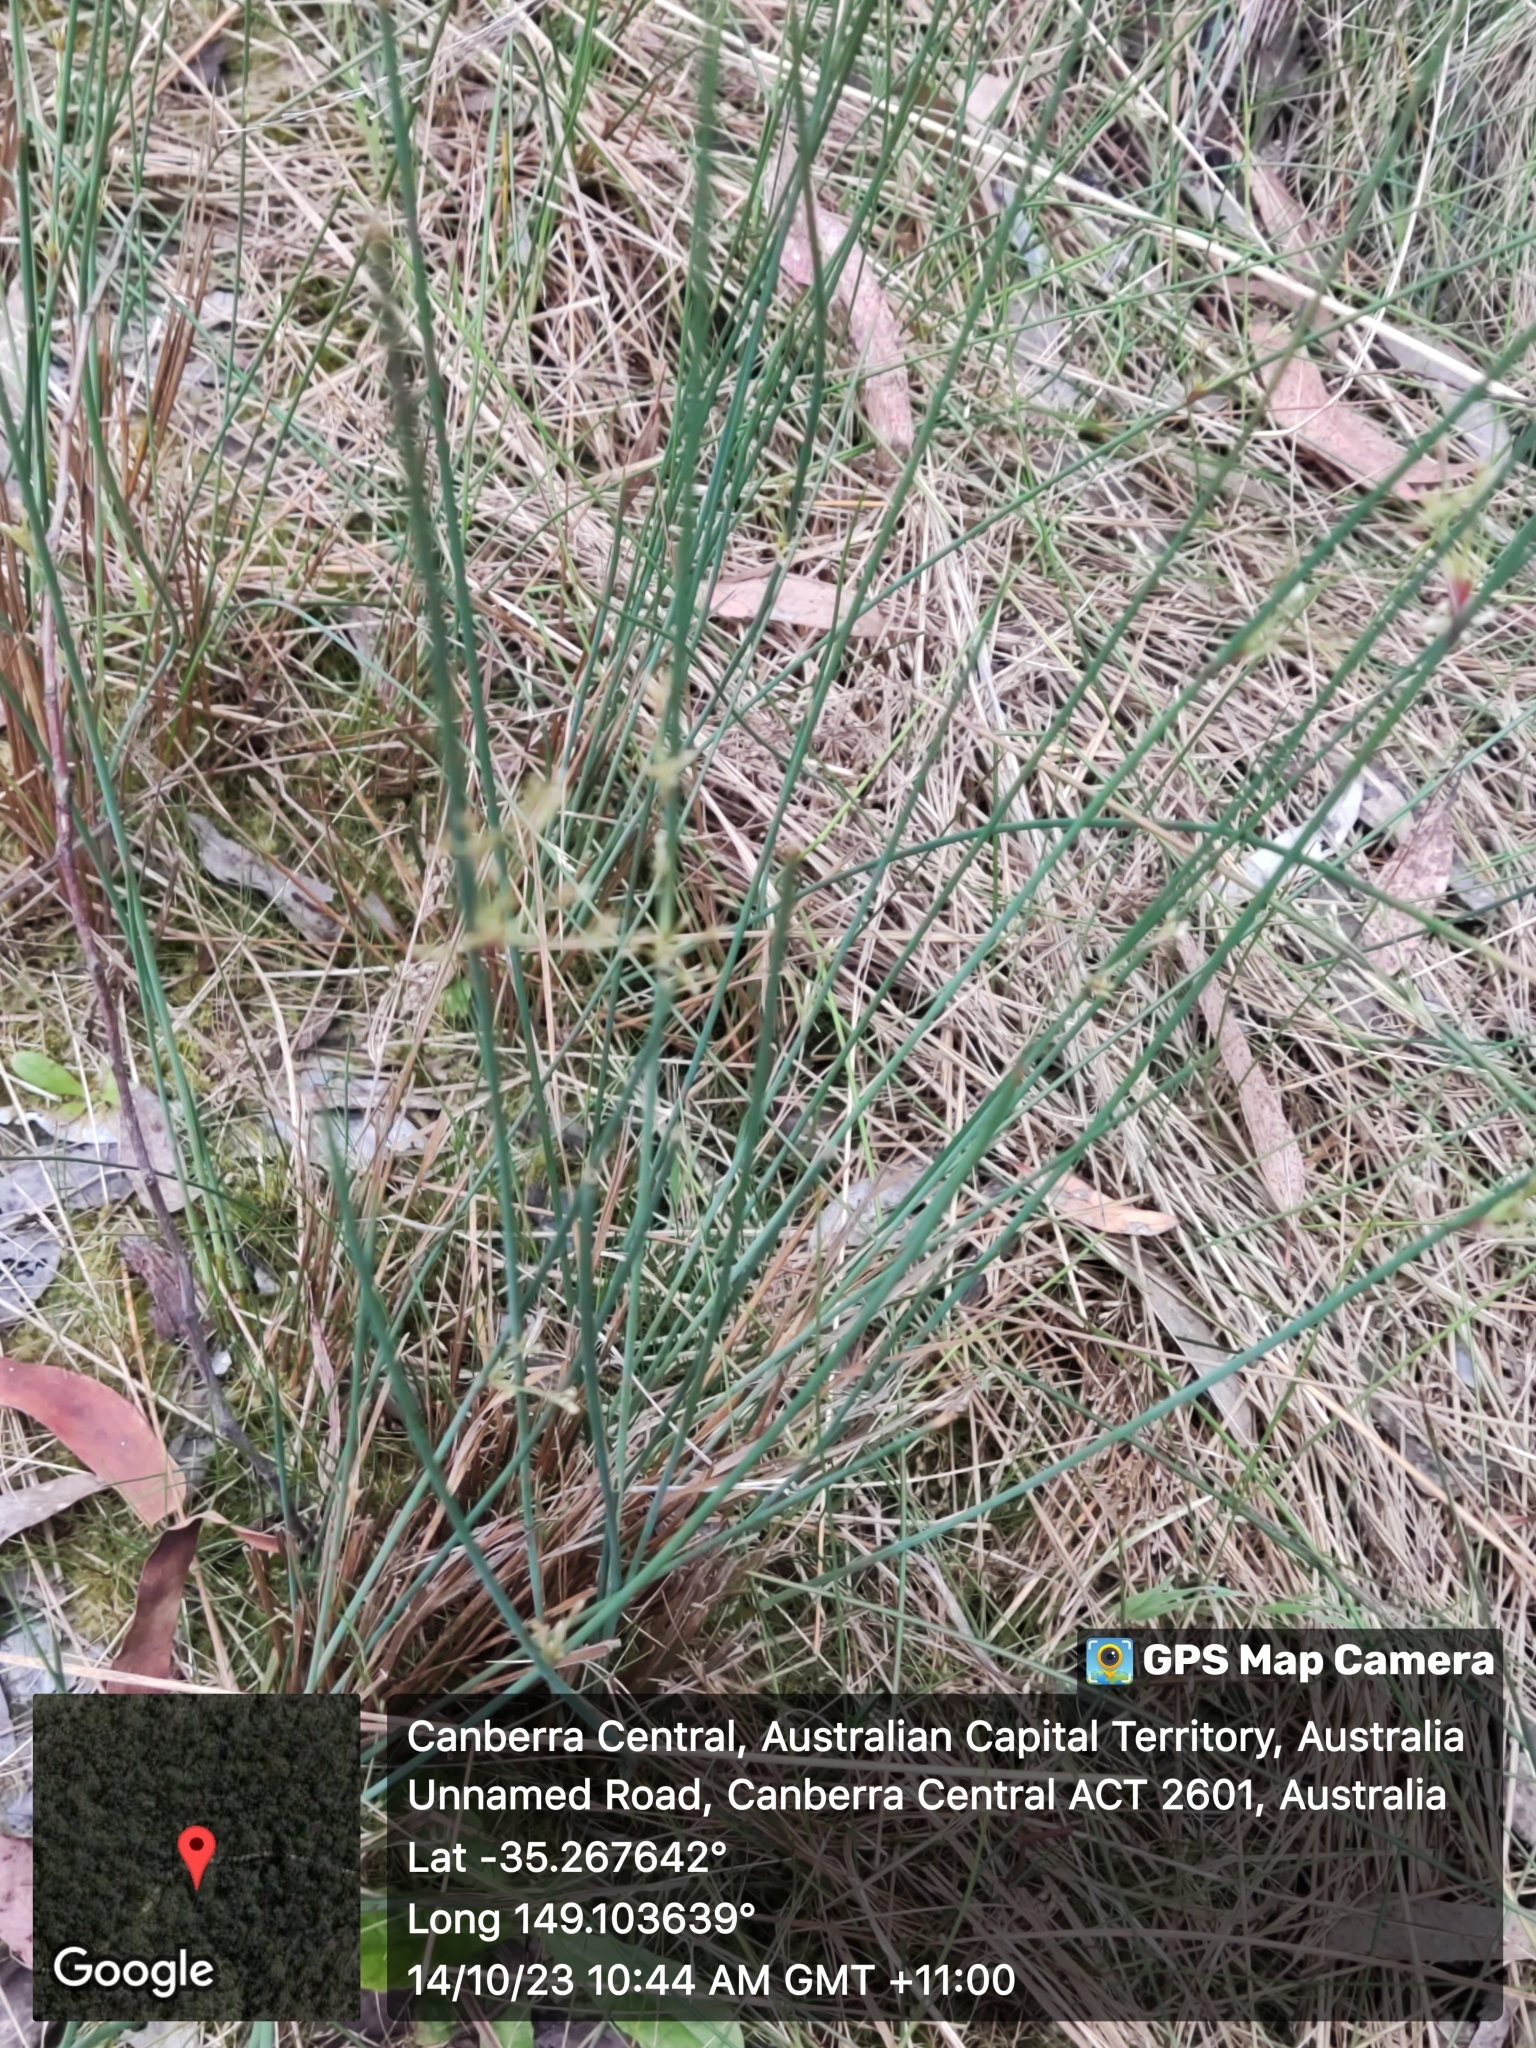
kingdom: Plantae
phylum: Tracheophyta
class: Liliopsida
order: Poales
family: Juncaceae
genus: Juncus
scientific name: Juncus
